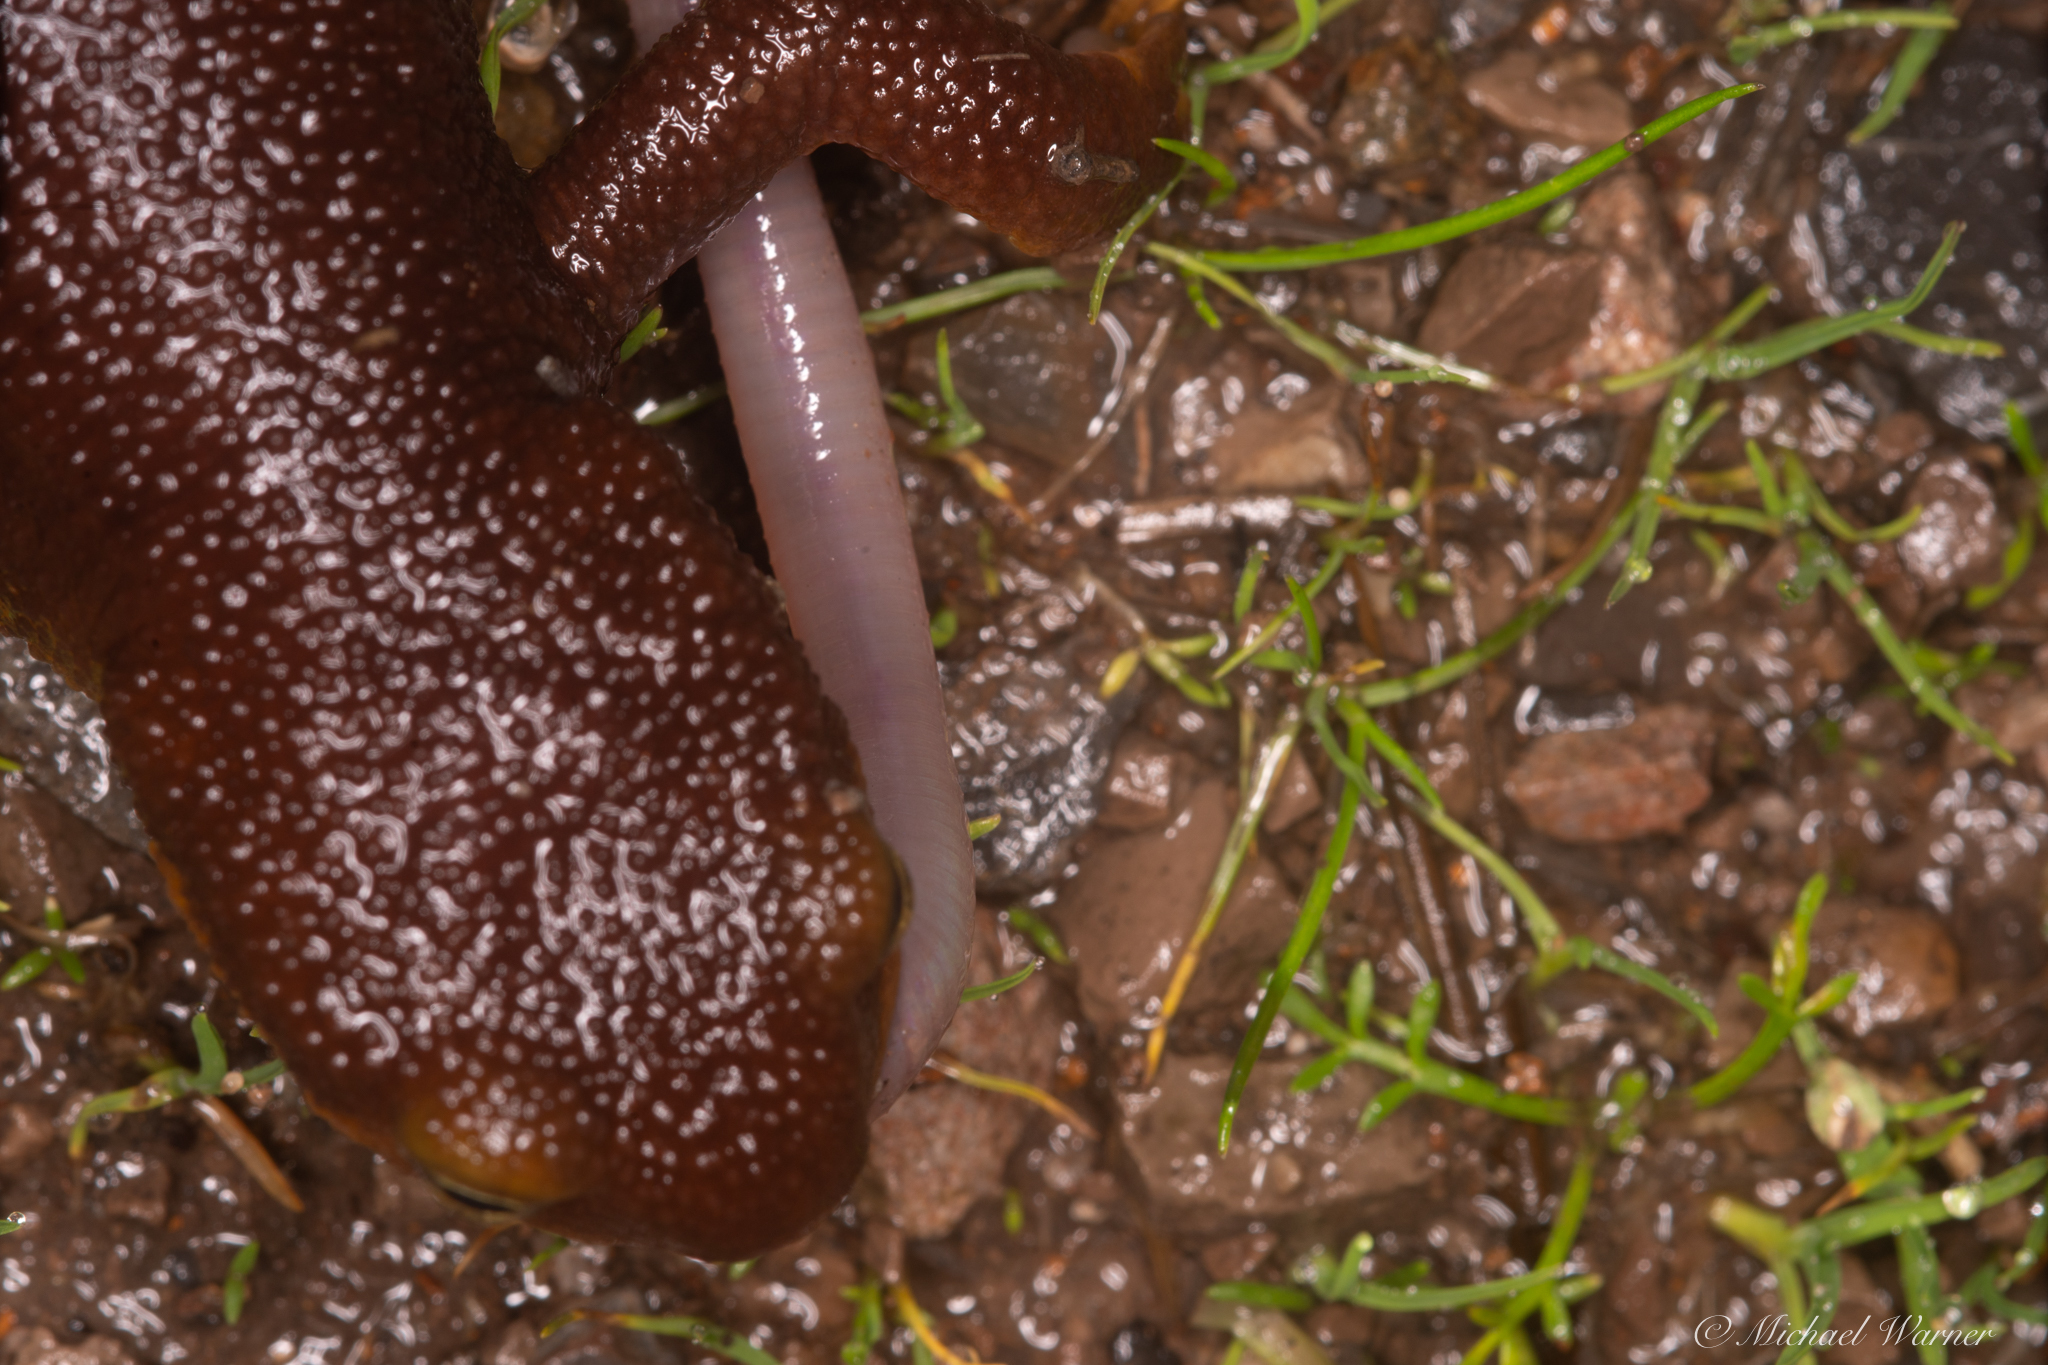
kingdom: Animalia
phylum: Chordata
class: Amphibia
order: Caudata
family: Salamandridae
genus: Taricha
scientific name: Taricha granulosa
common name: Roughskin newt
